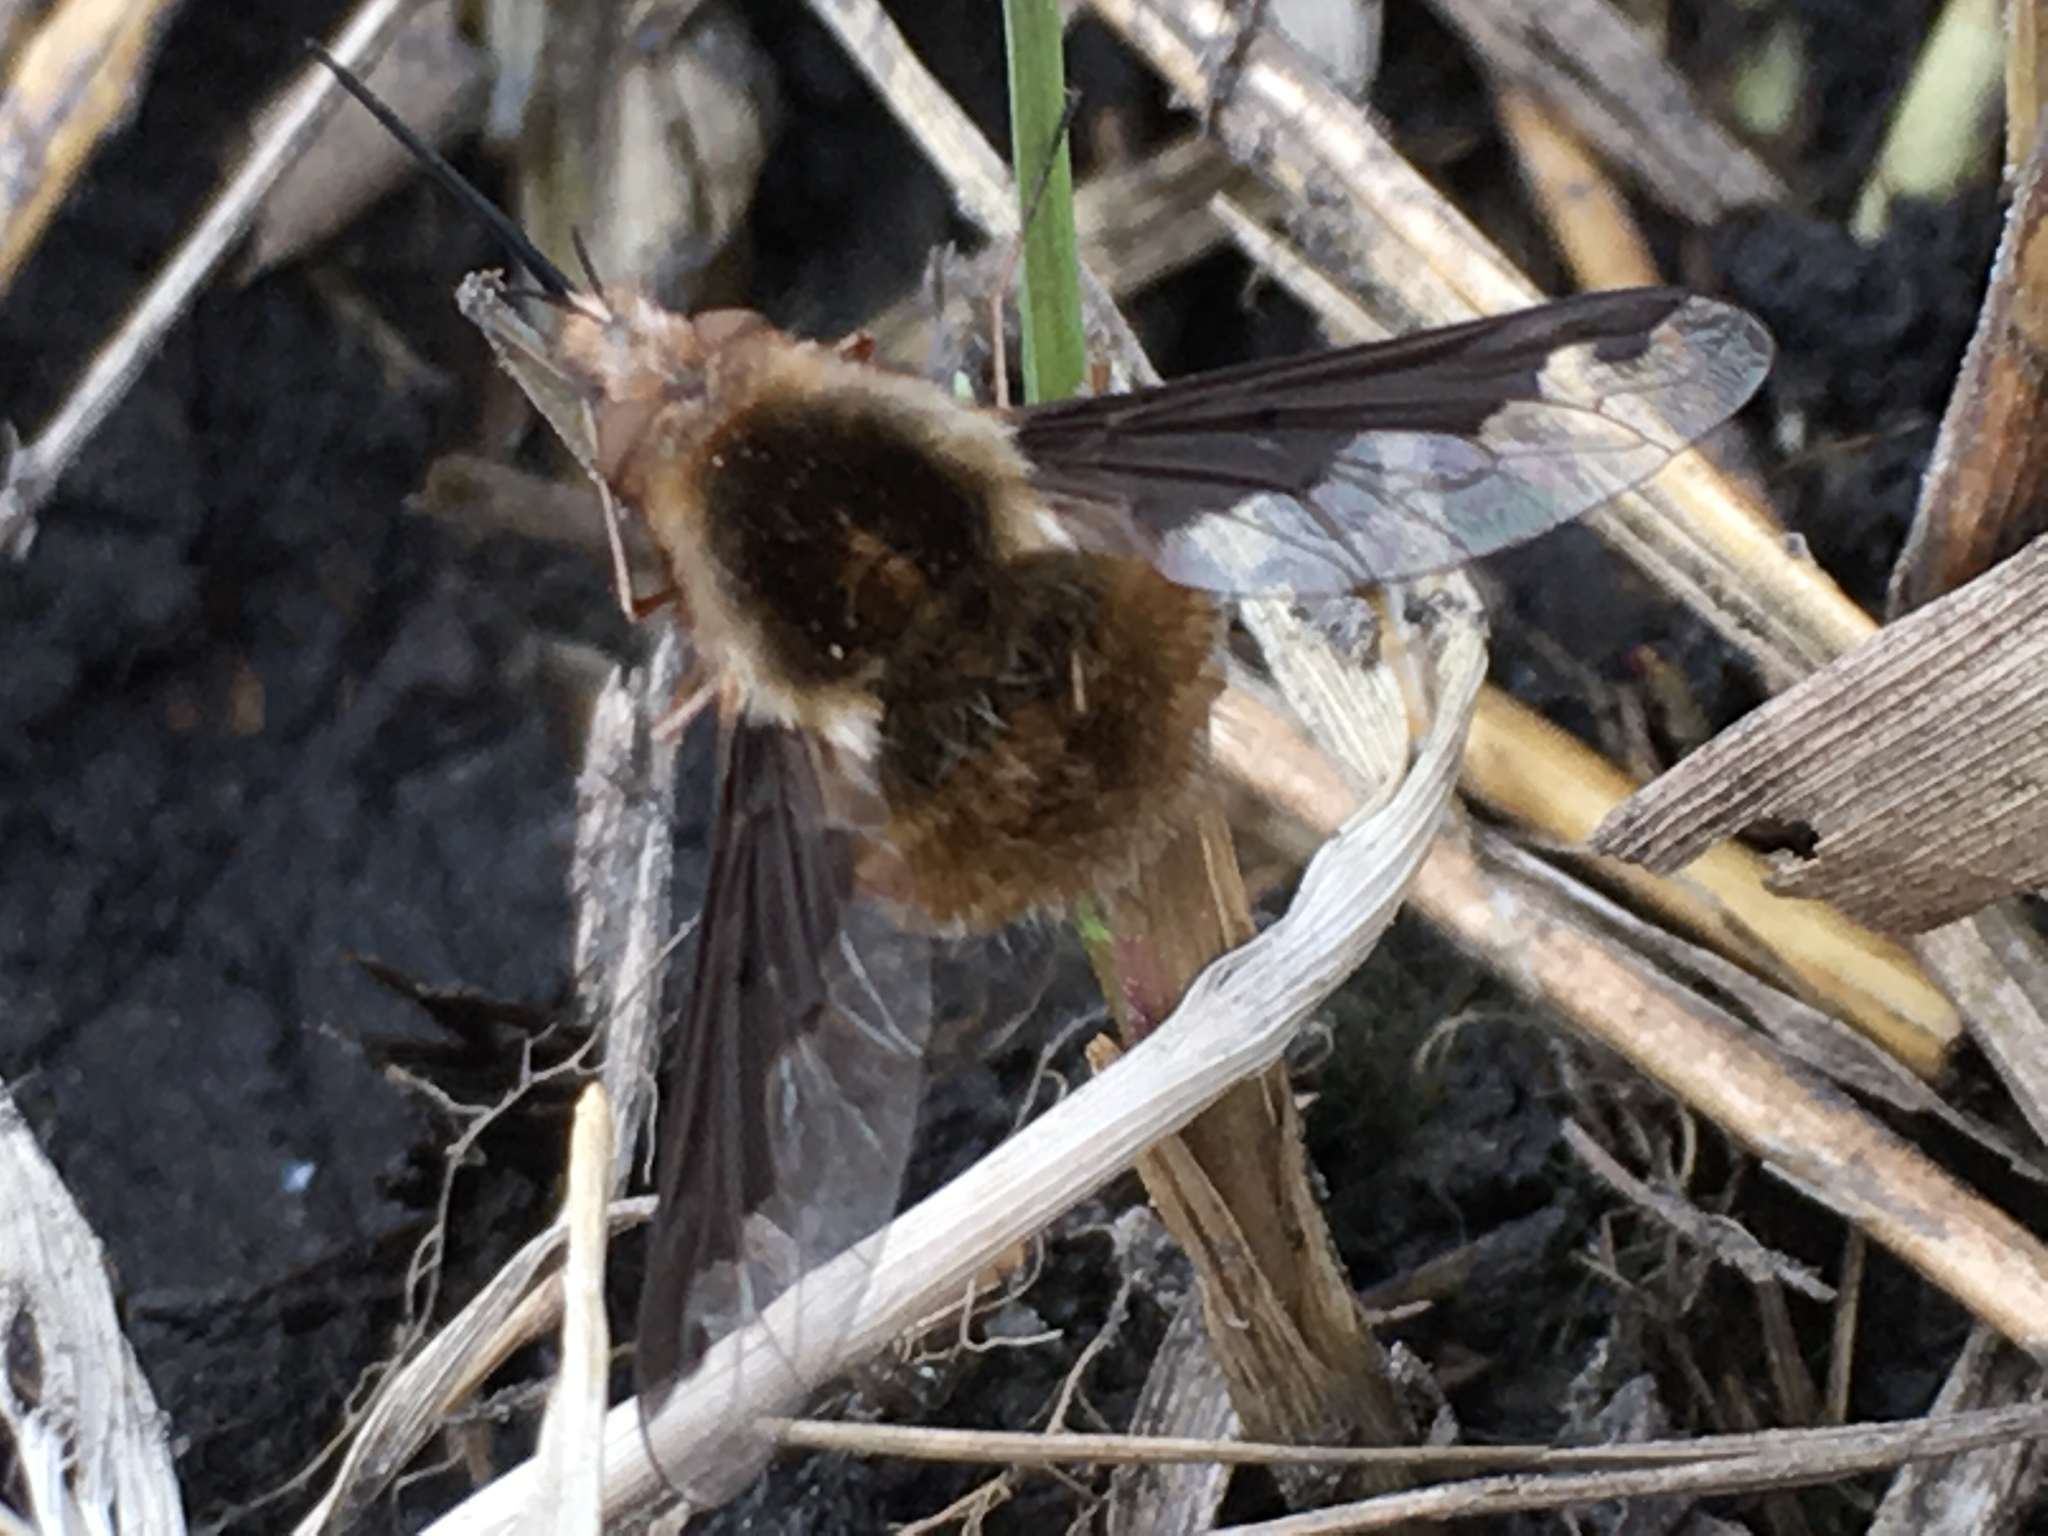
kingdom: Animalia
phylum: Arthropoda
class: Insecta
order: Diptera
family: Bombyliidae
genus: Bombylius
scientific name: Bombylius major
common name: Bee fly
